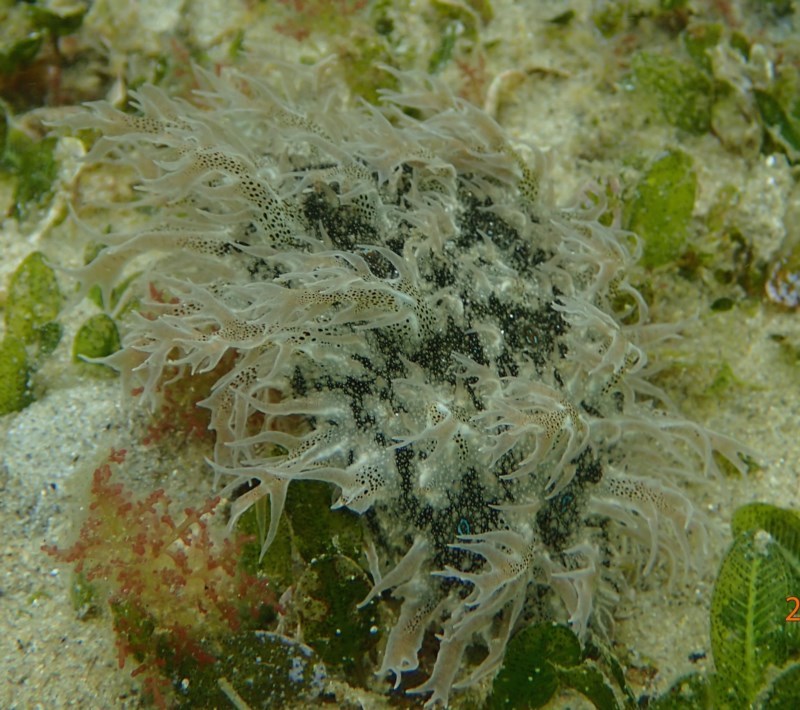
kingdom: Animalia
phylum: Mollusca
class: Gastropoda
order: Aplysiida
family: Aplysiidae
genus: Bursatella
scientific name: Bursatella leachii
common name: Shaggy sea hare
